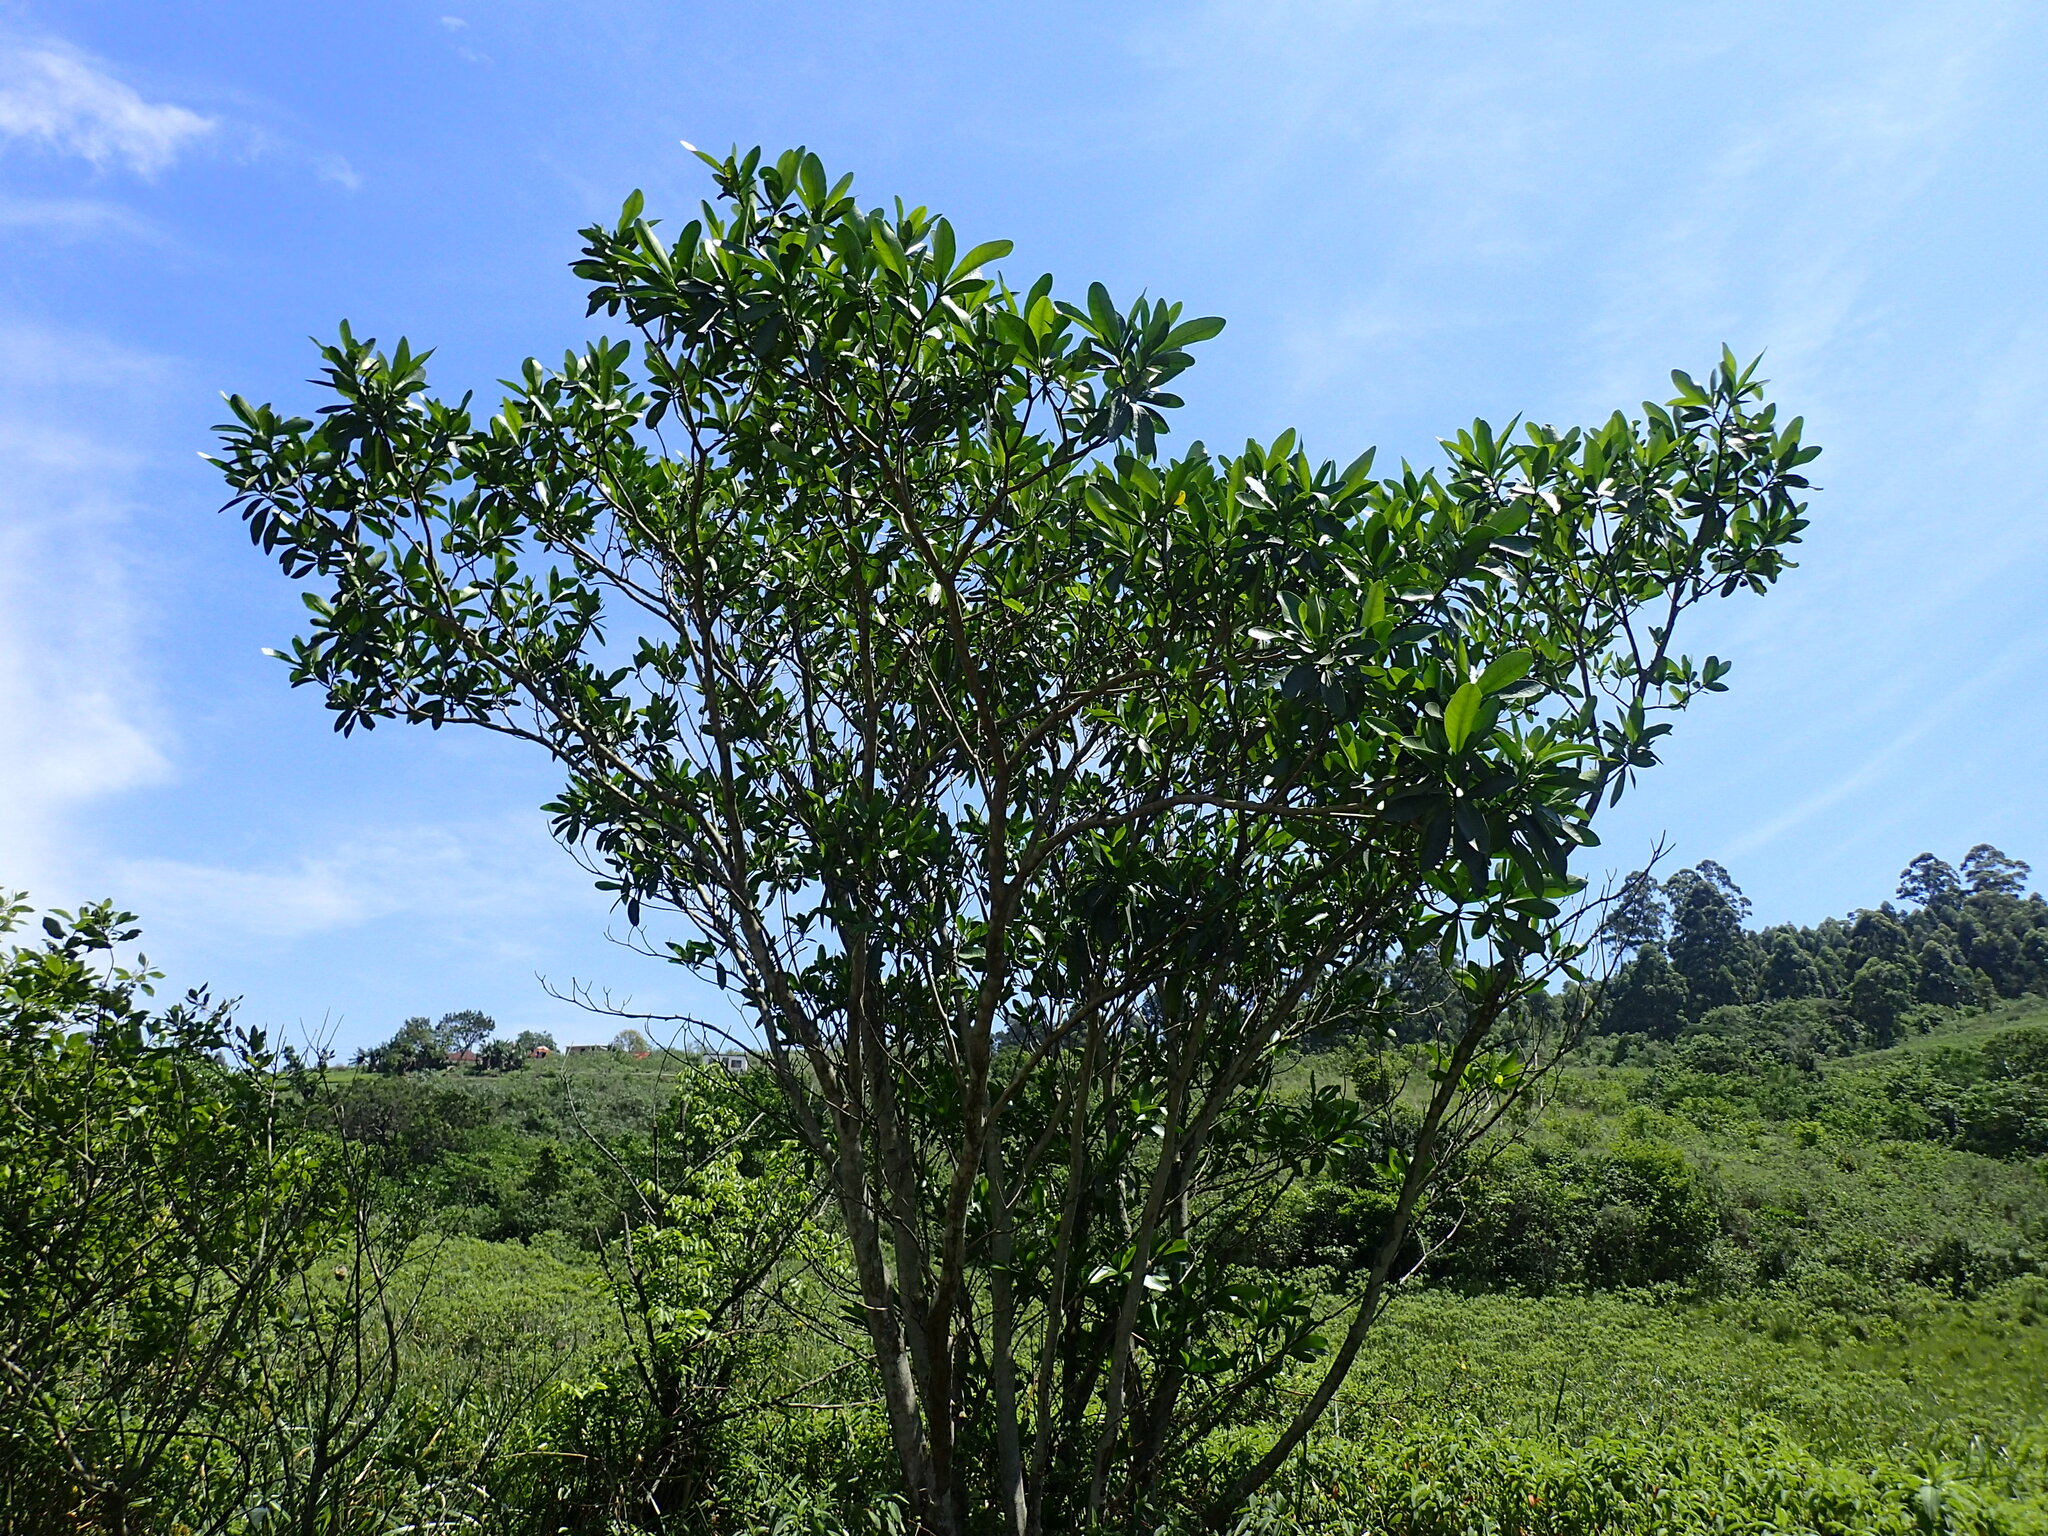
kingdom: Plantae
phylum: Tracheophyta
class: Magnoliopsida
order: Gentianales
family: Apocynaceae
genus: Voacanga
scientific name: Voacanga thouarsii
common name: Wild frangipani
